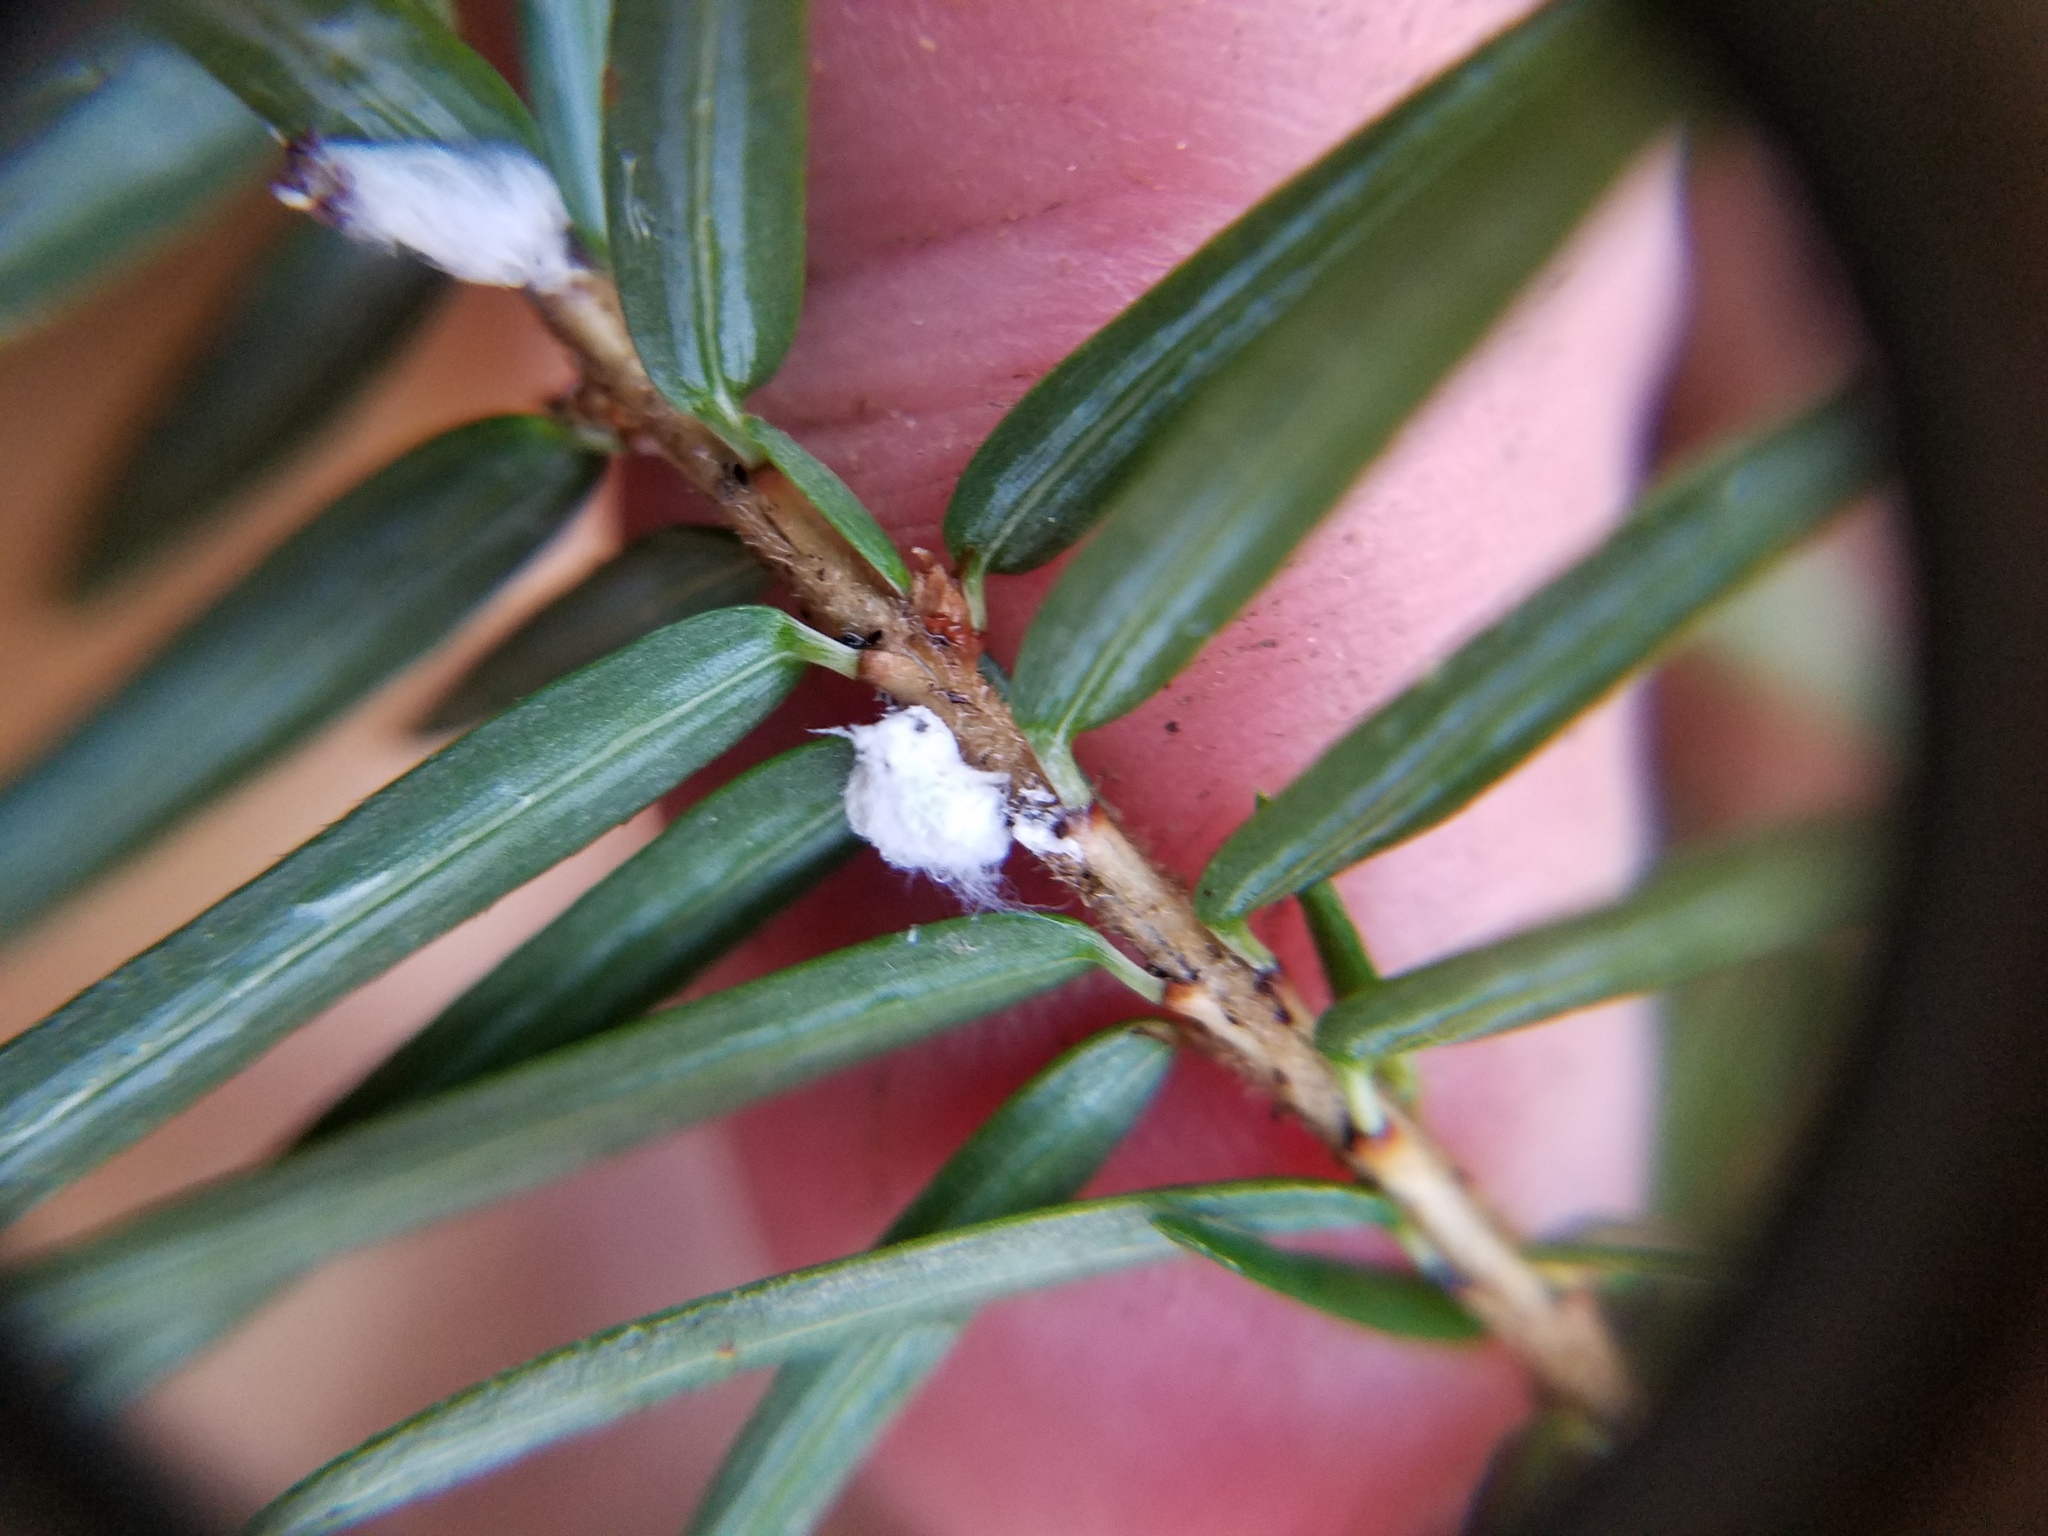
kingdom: Animalia
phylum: Arthropoda
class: Insecta
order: Hemiptera
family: Adelgidae
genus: Adelges
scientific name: Adelges tsugae
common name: Hemlock woolly adelgid
